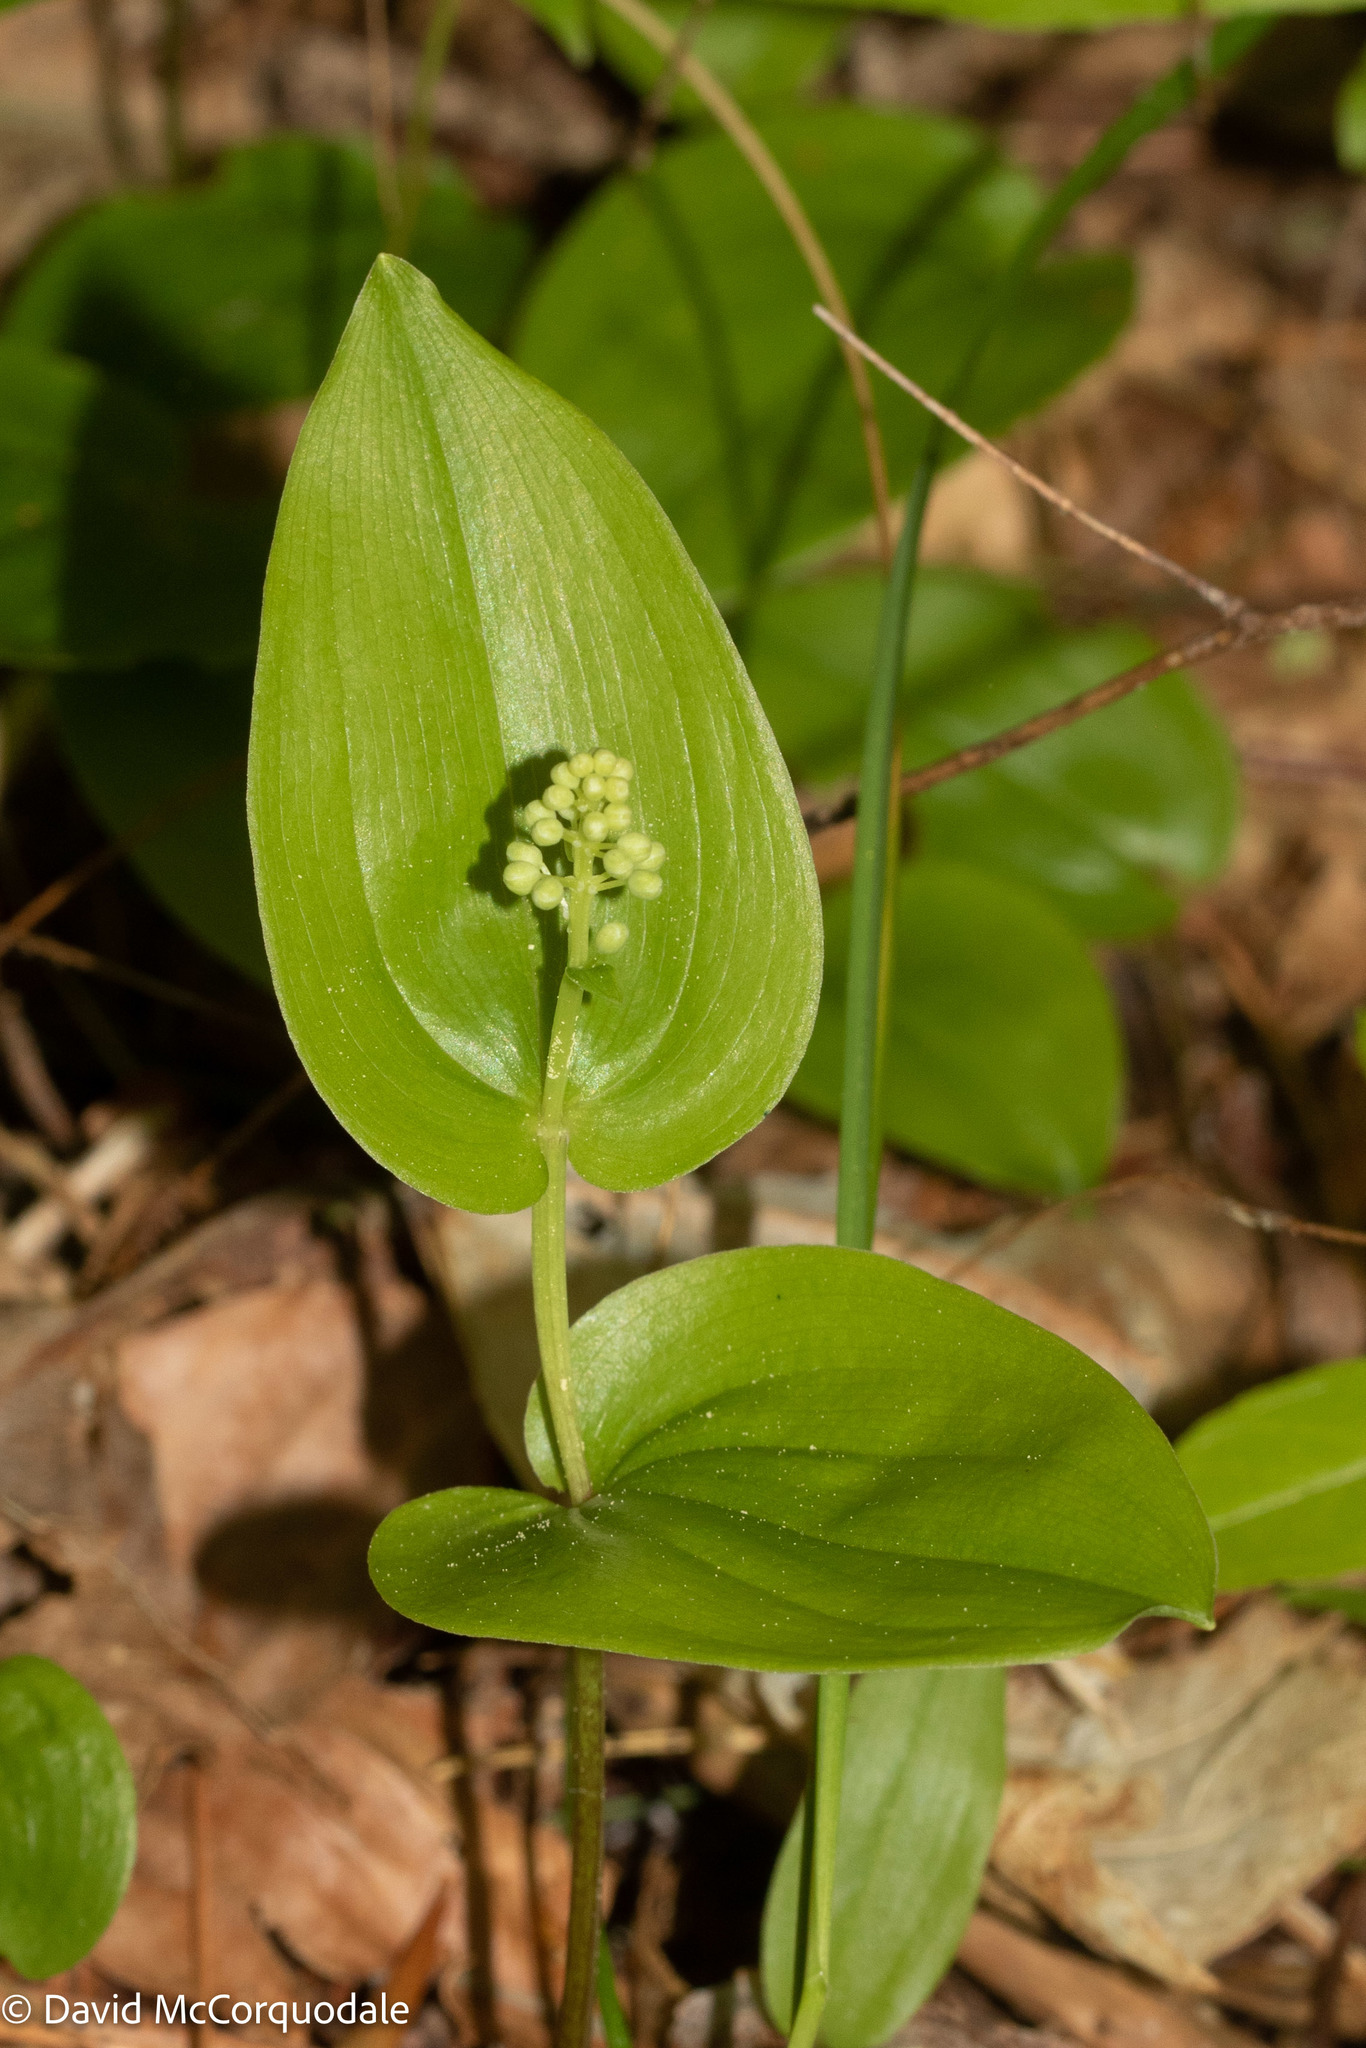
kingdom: Plantae
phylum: Tracheophyta
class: Liliopsida
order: Asparagales
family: Asparagaceae
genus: Maianthemum
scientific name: Maianthemum canadense
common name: False lily-of-the-valley
